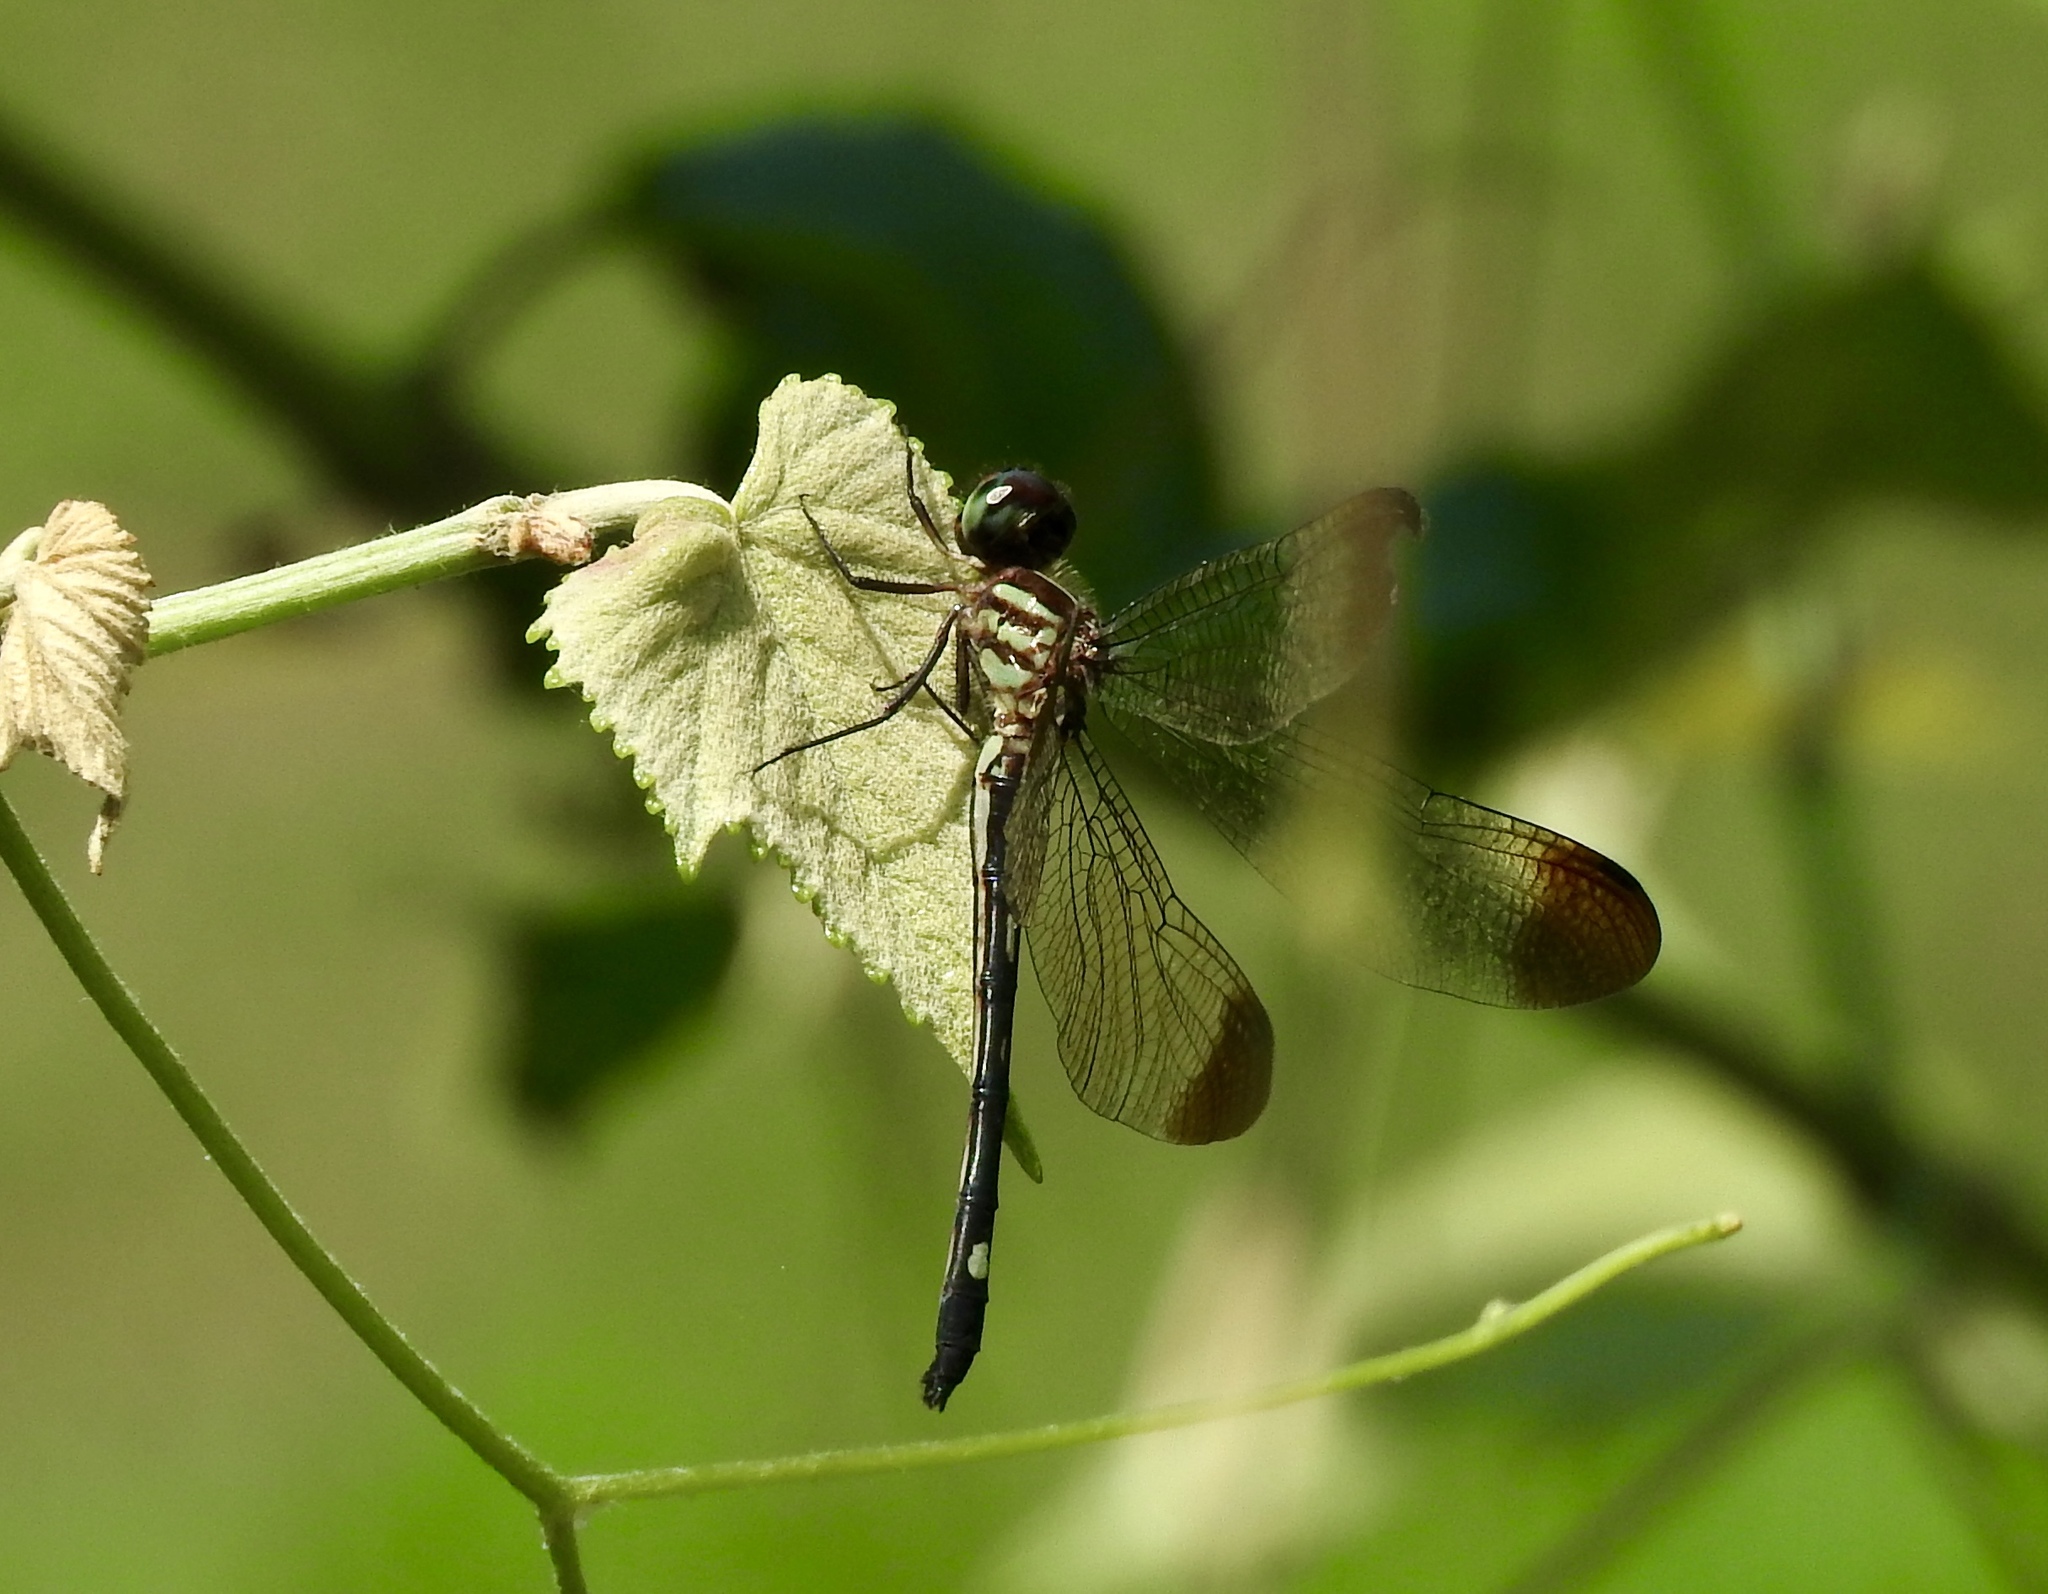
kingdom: Animalia
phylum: Arthropoda
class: Insecta
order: Odonata
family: Libellulidae
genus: Macrothemis
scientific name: Macrothemis inequiunguis
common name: Jade-striped sylph
